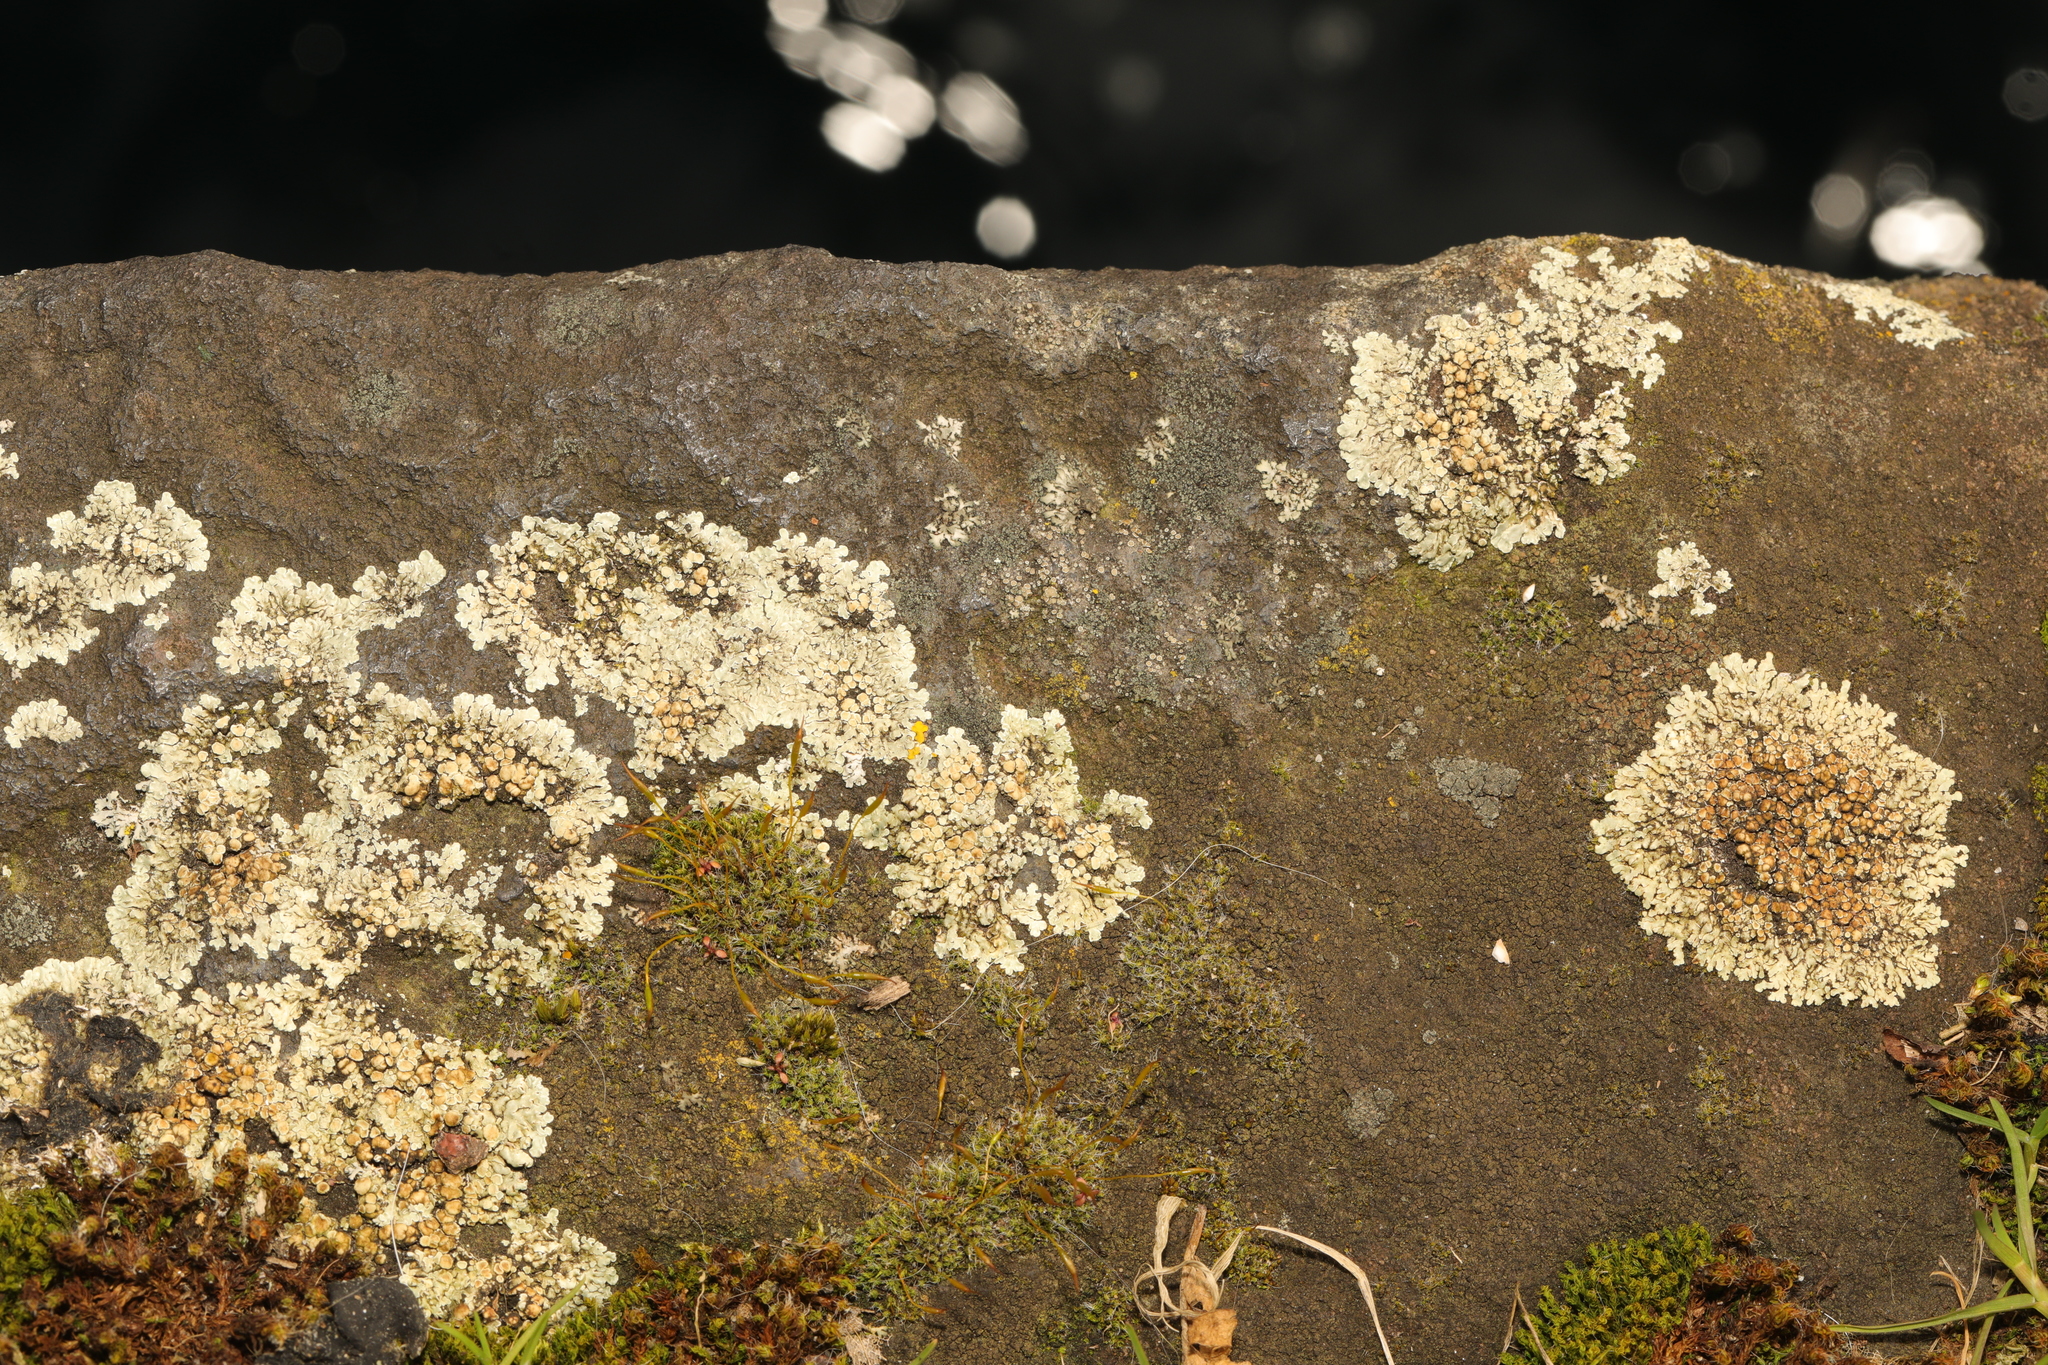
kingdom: Fungi
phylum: Ascomycota
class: Lecanoromycetes
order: Lecanorales
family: Lecanoraceae
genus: Protoparmeliopsis
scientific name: Protoparmeliopsis muralis
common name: Stonewall rim lichen
